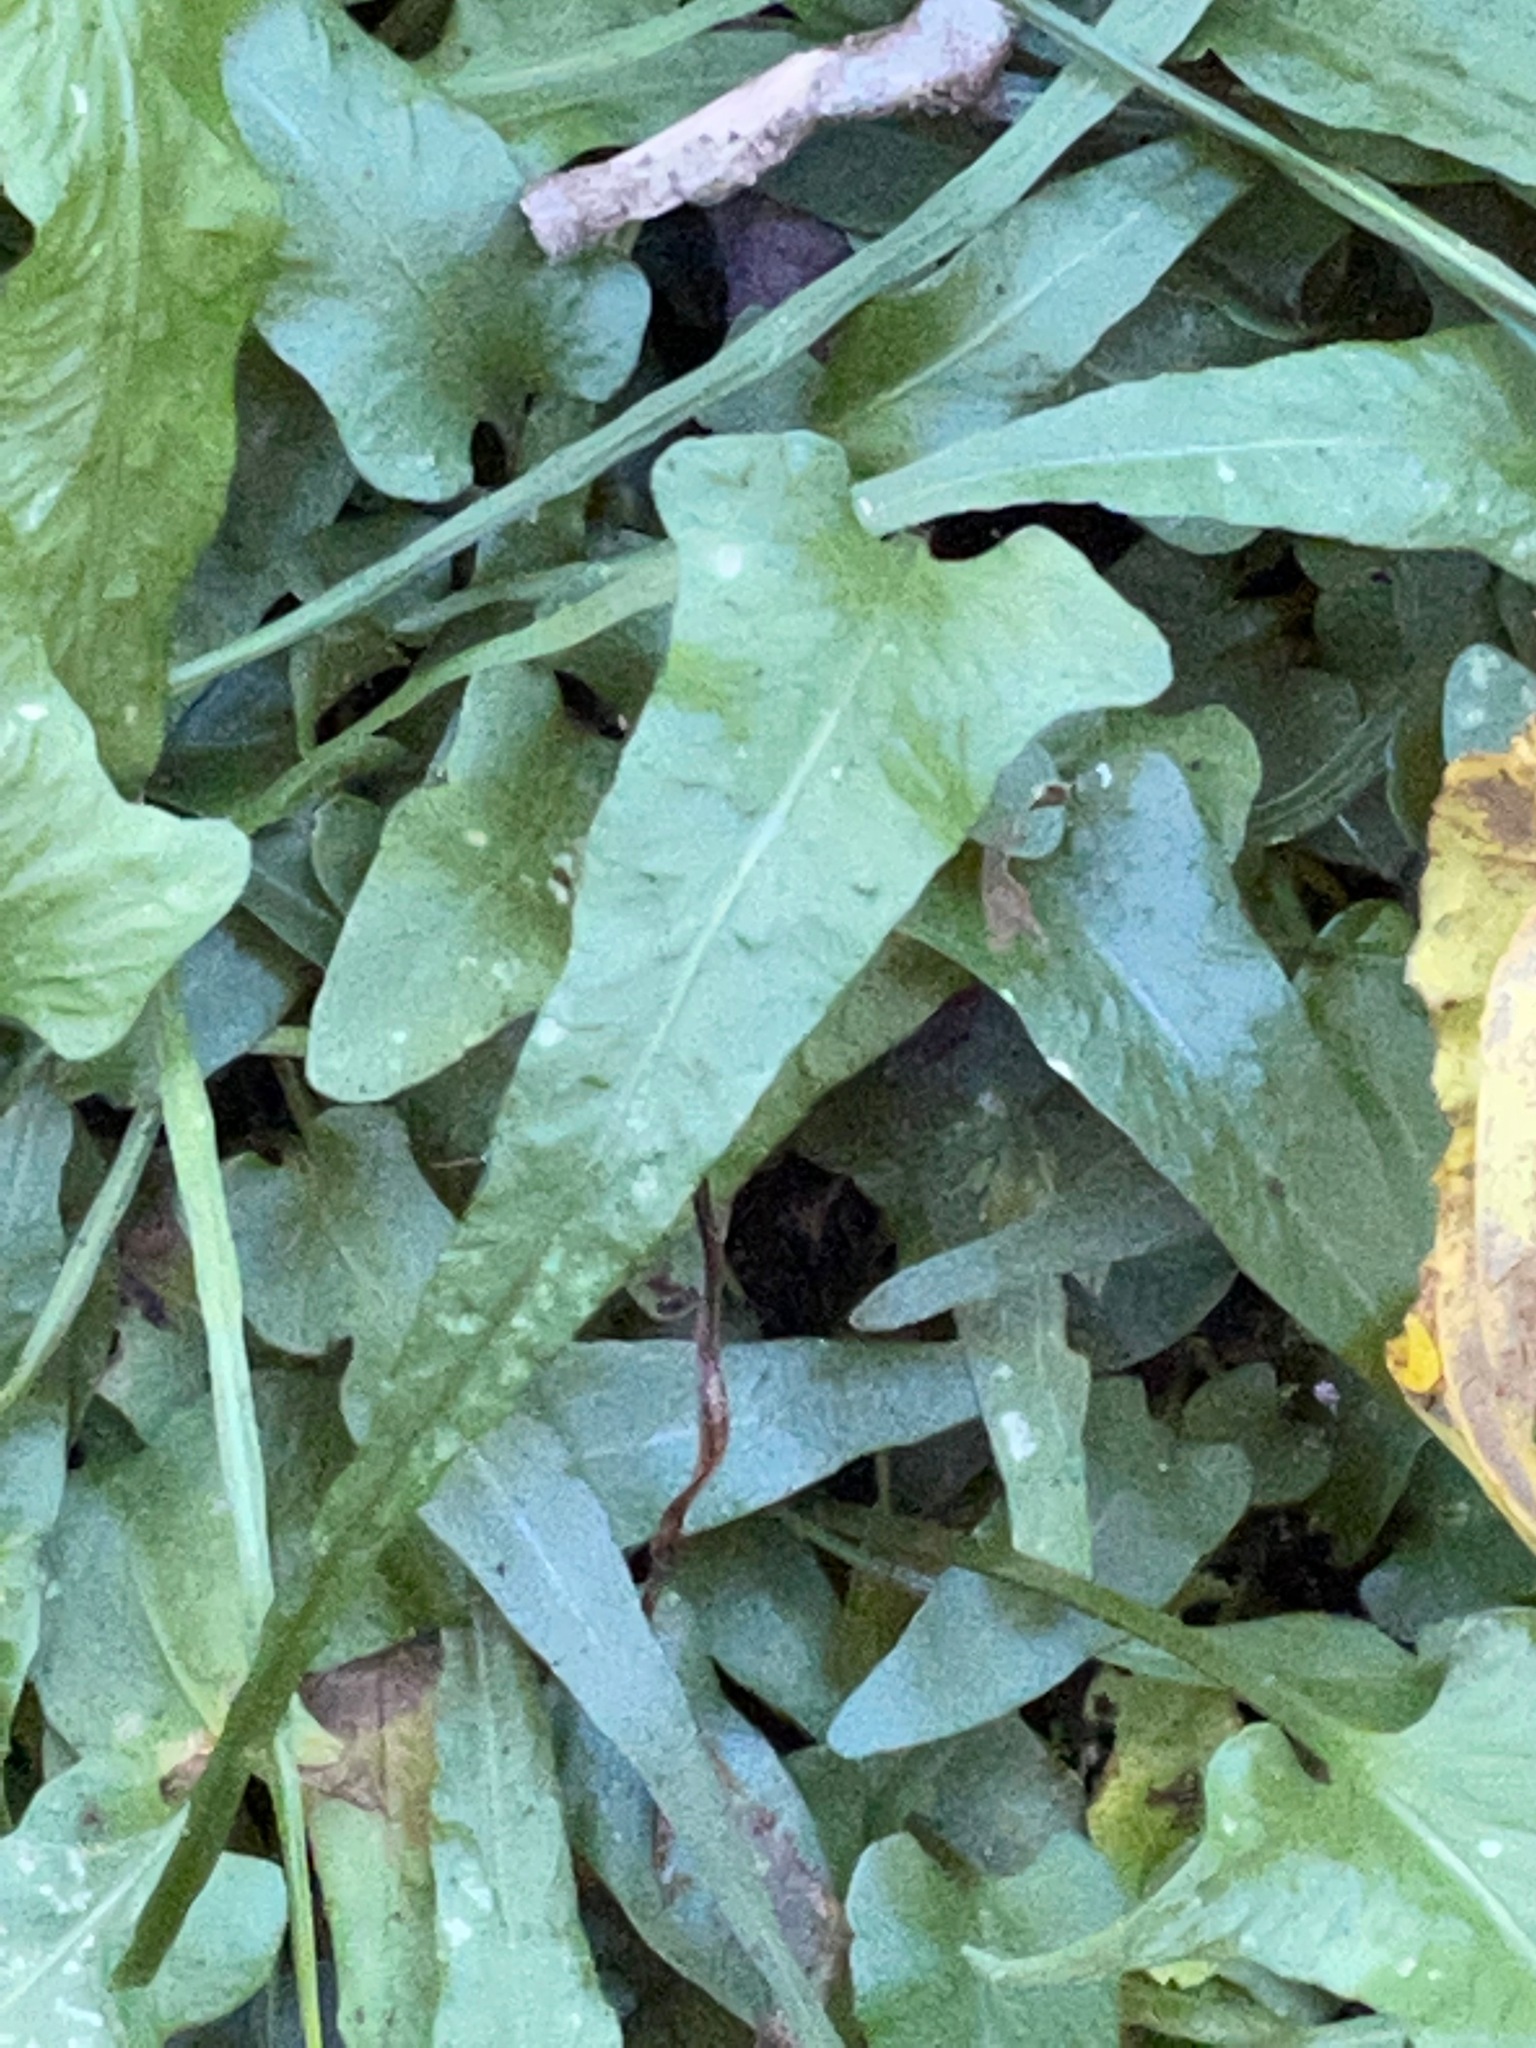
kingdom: Plantae
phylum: Tracheophyta
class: Polypodiopsida
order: Polypodiales
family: Aspleniaceae
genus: Asplenium
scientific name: Asplenium rhizophyllum
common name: Walking fern
